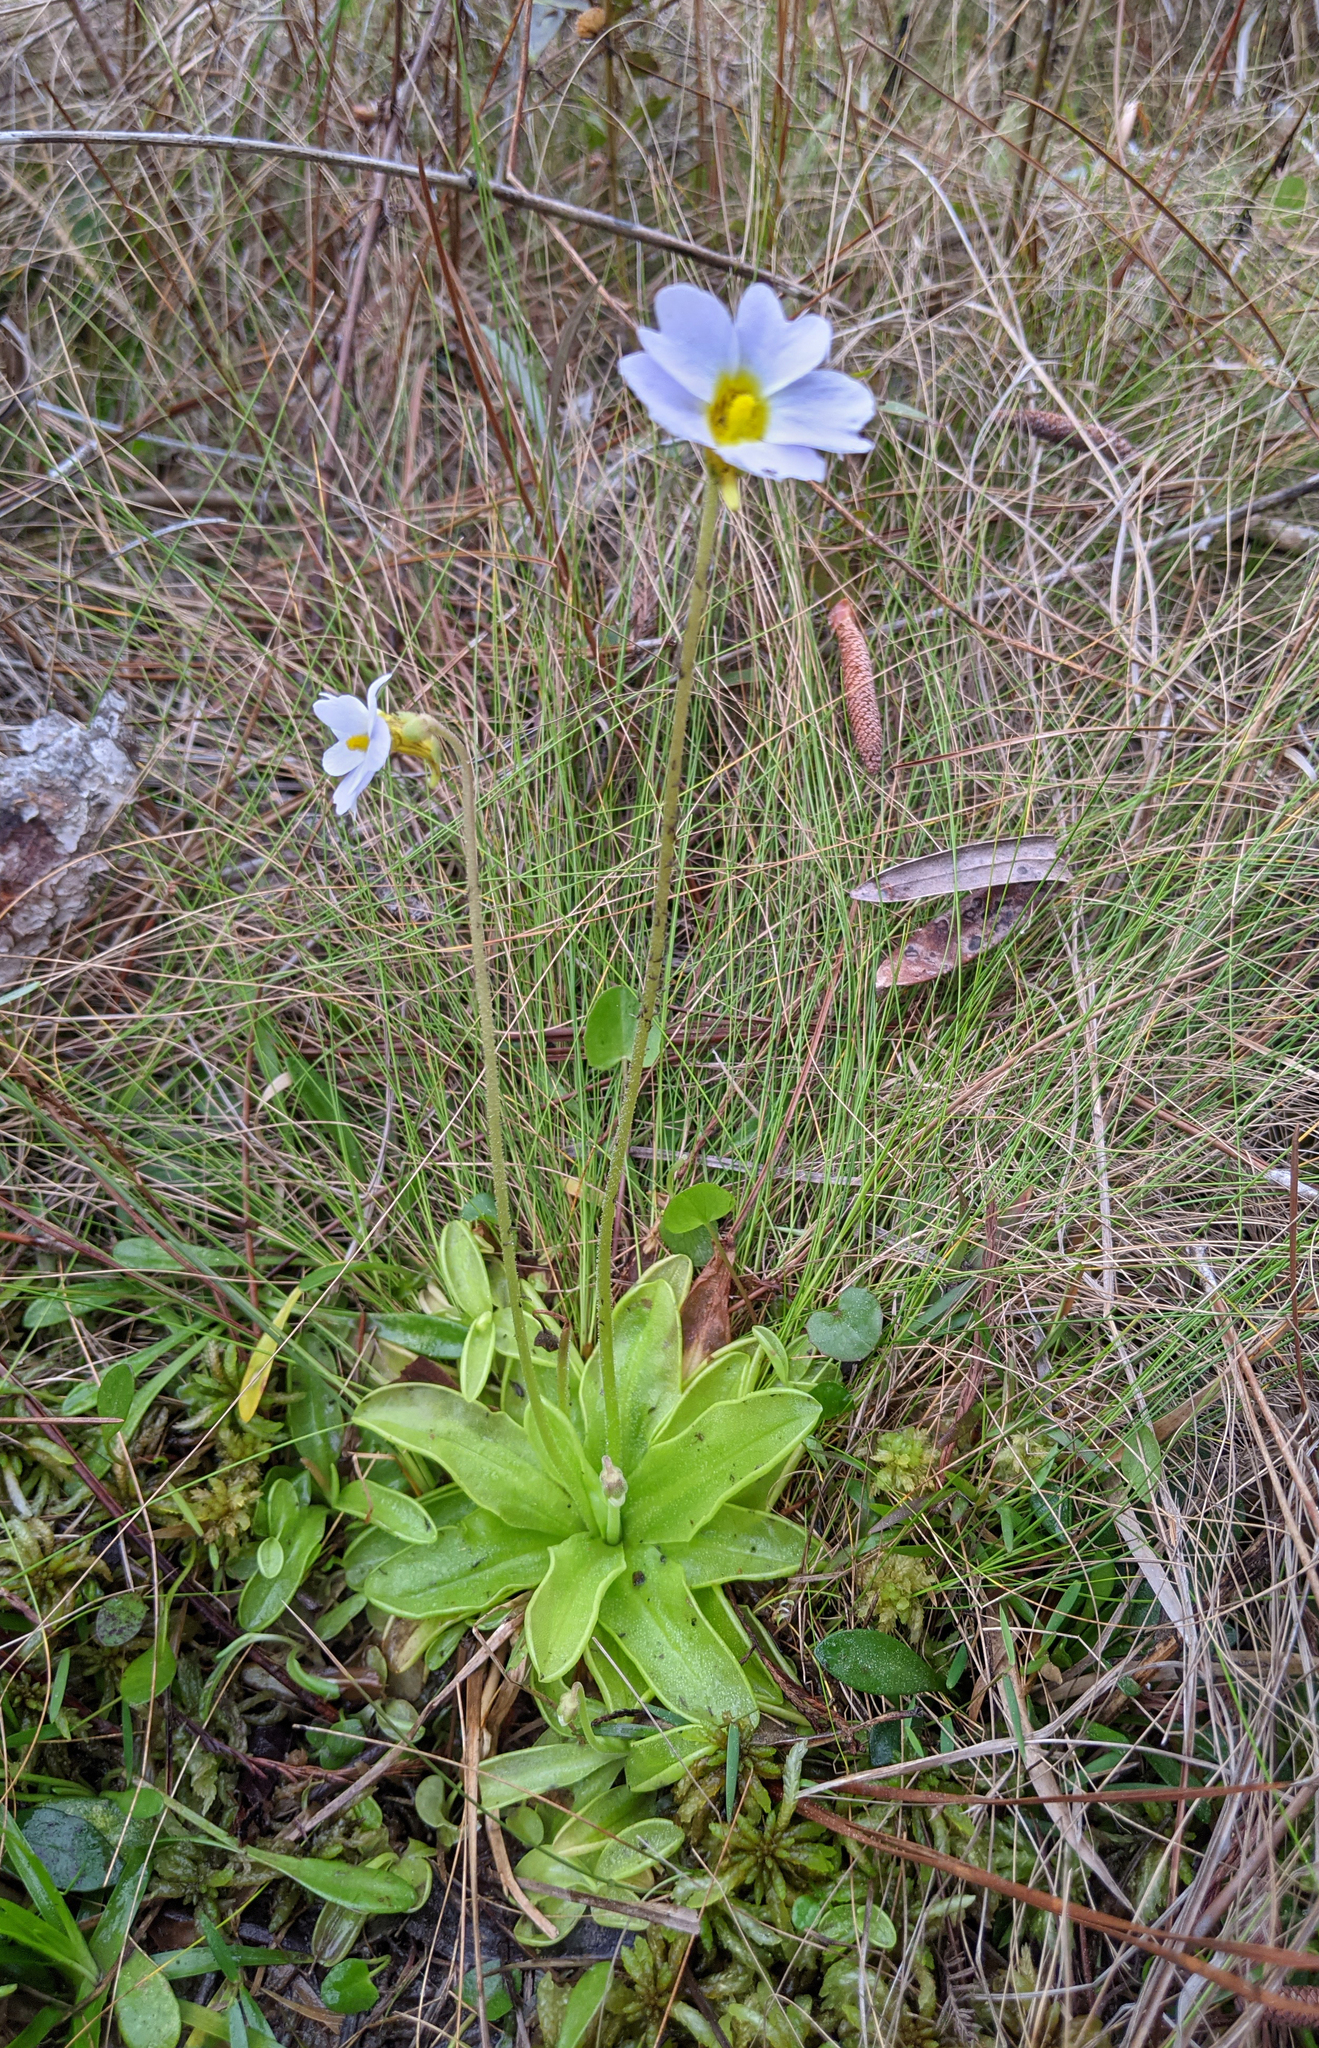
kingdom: Plantae
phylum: Tracheophyta
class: Magnoliopsida
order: Lamiales
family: Lentibulariaceae
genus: Pinguicula
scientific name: Pinguicula primuliflora
